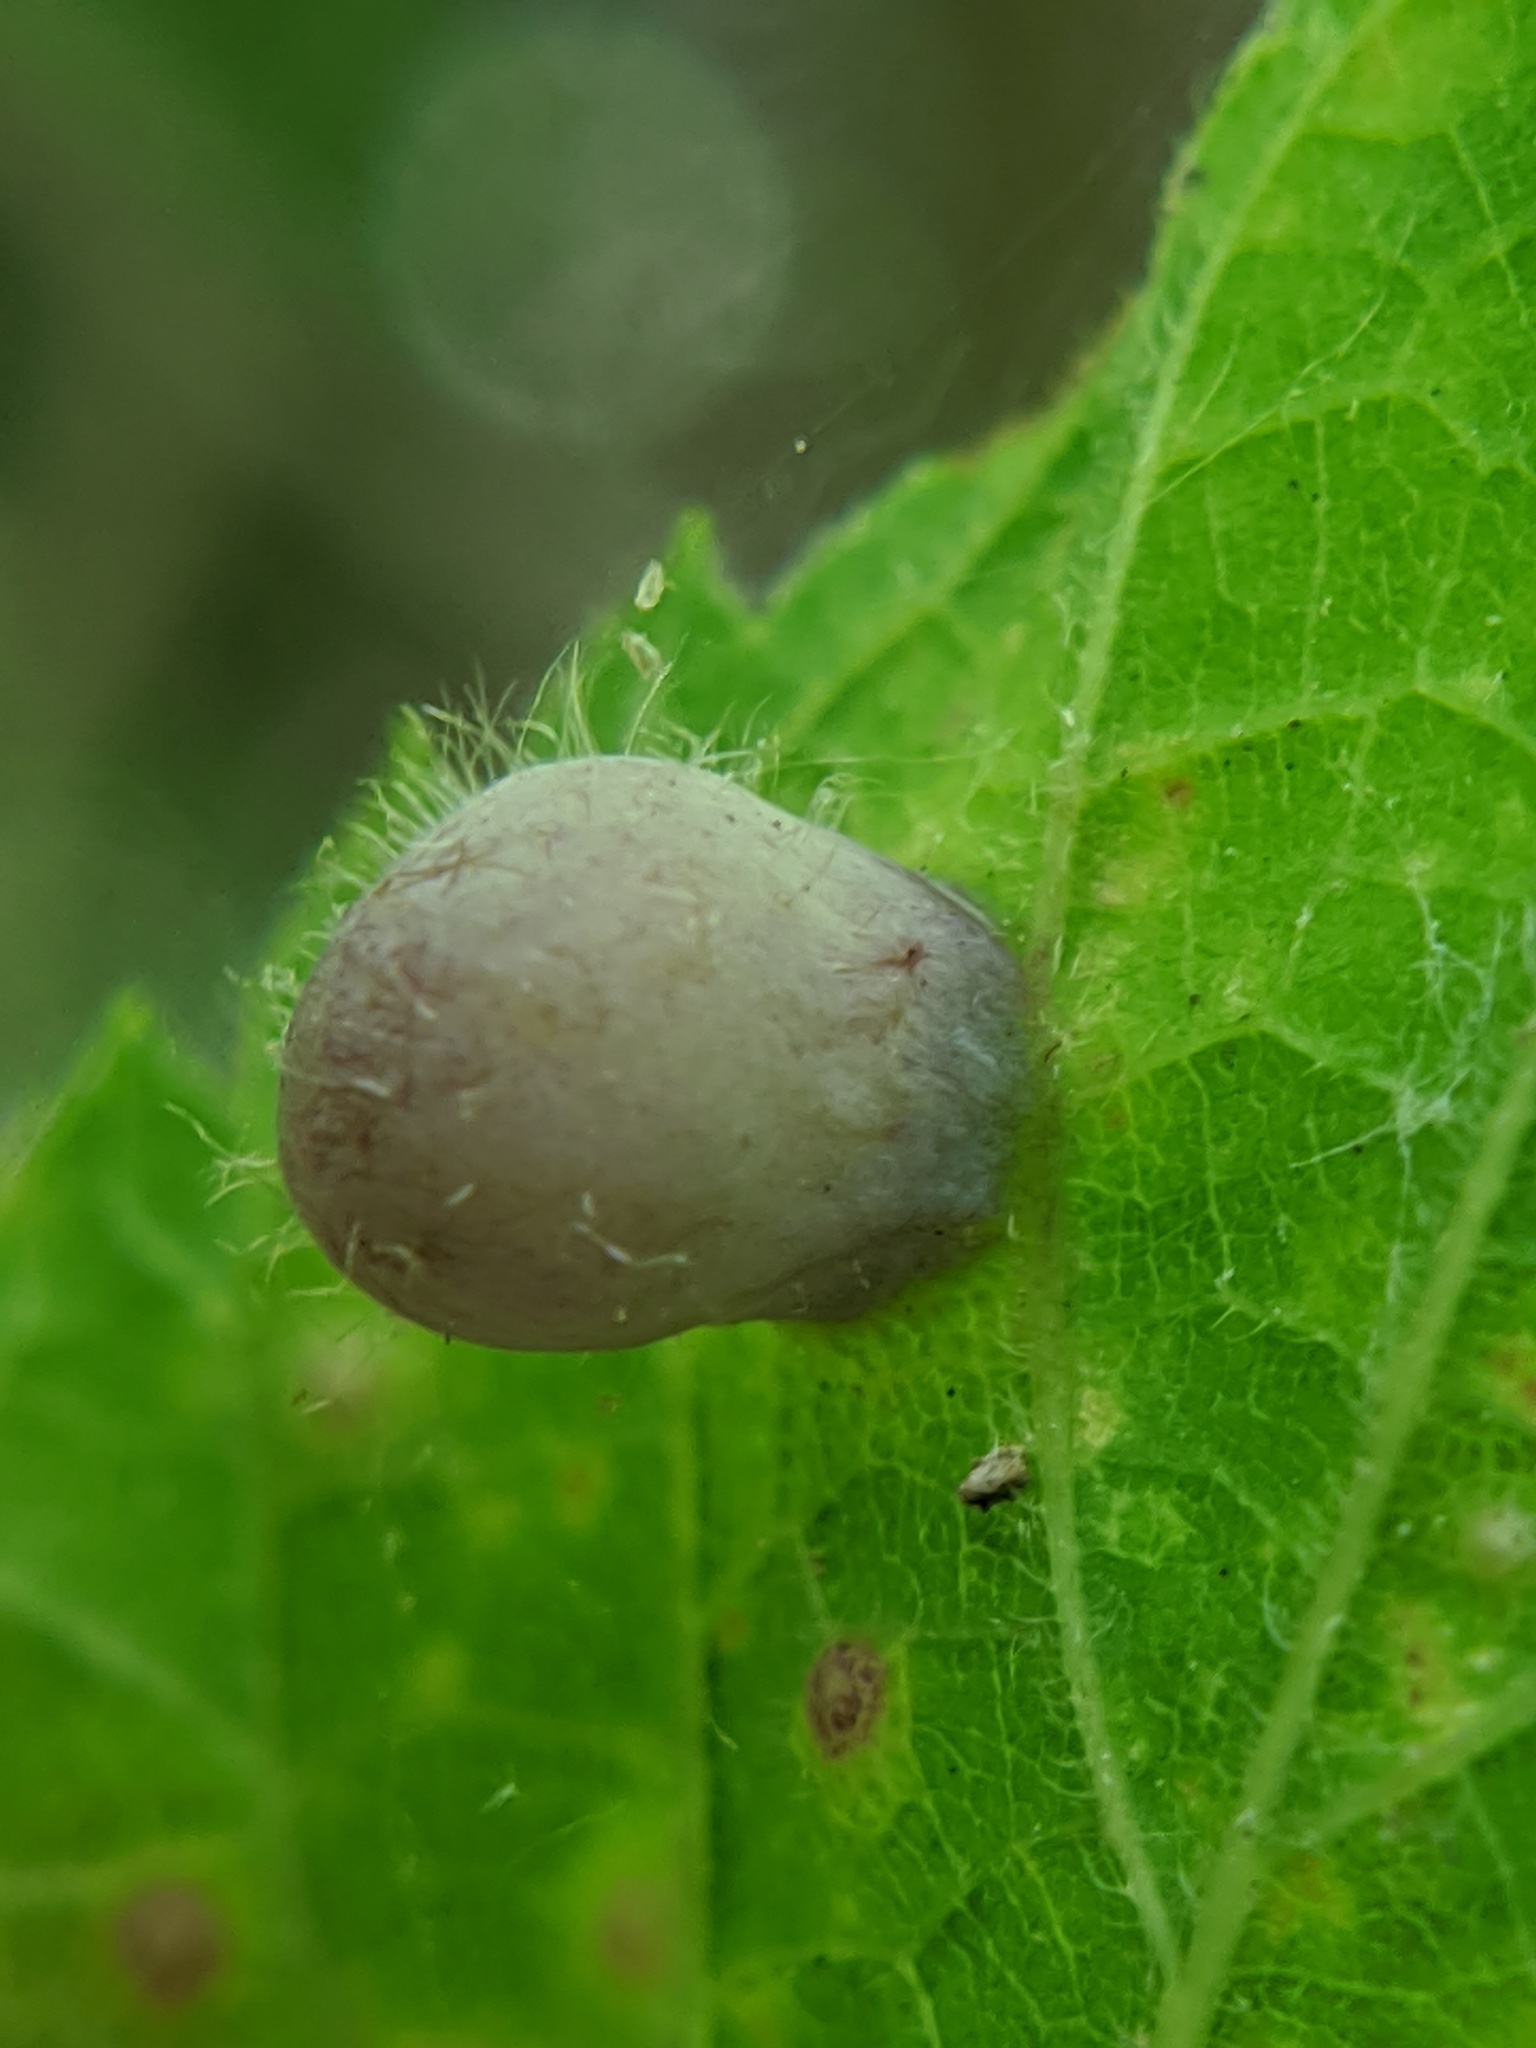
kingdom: Animalia
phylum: Arthropoda
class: Insecta
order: Hemiptera
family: Aphalaridae
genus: Pachypsylla
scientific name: Pachypsylla celtidismamma
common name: Hackberry nipplegall psyllid
